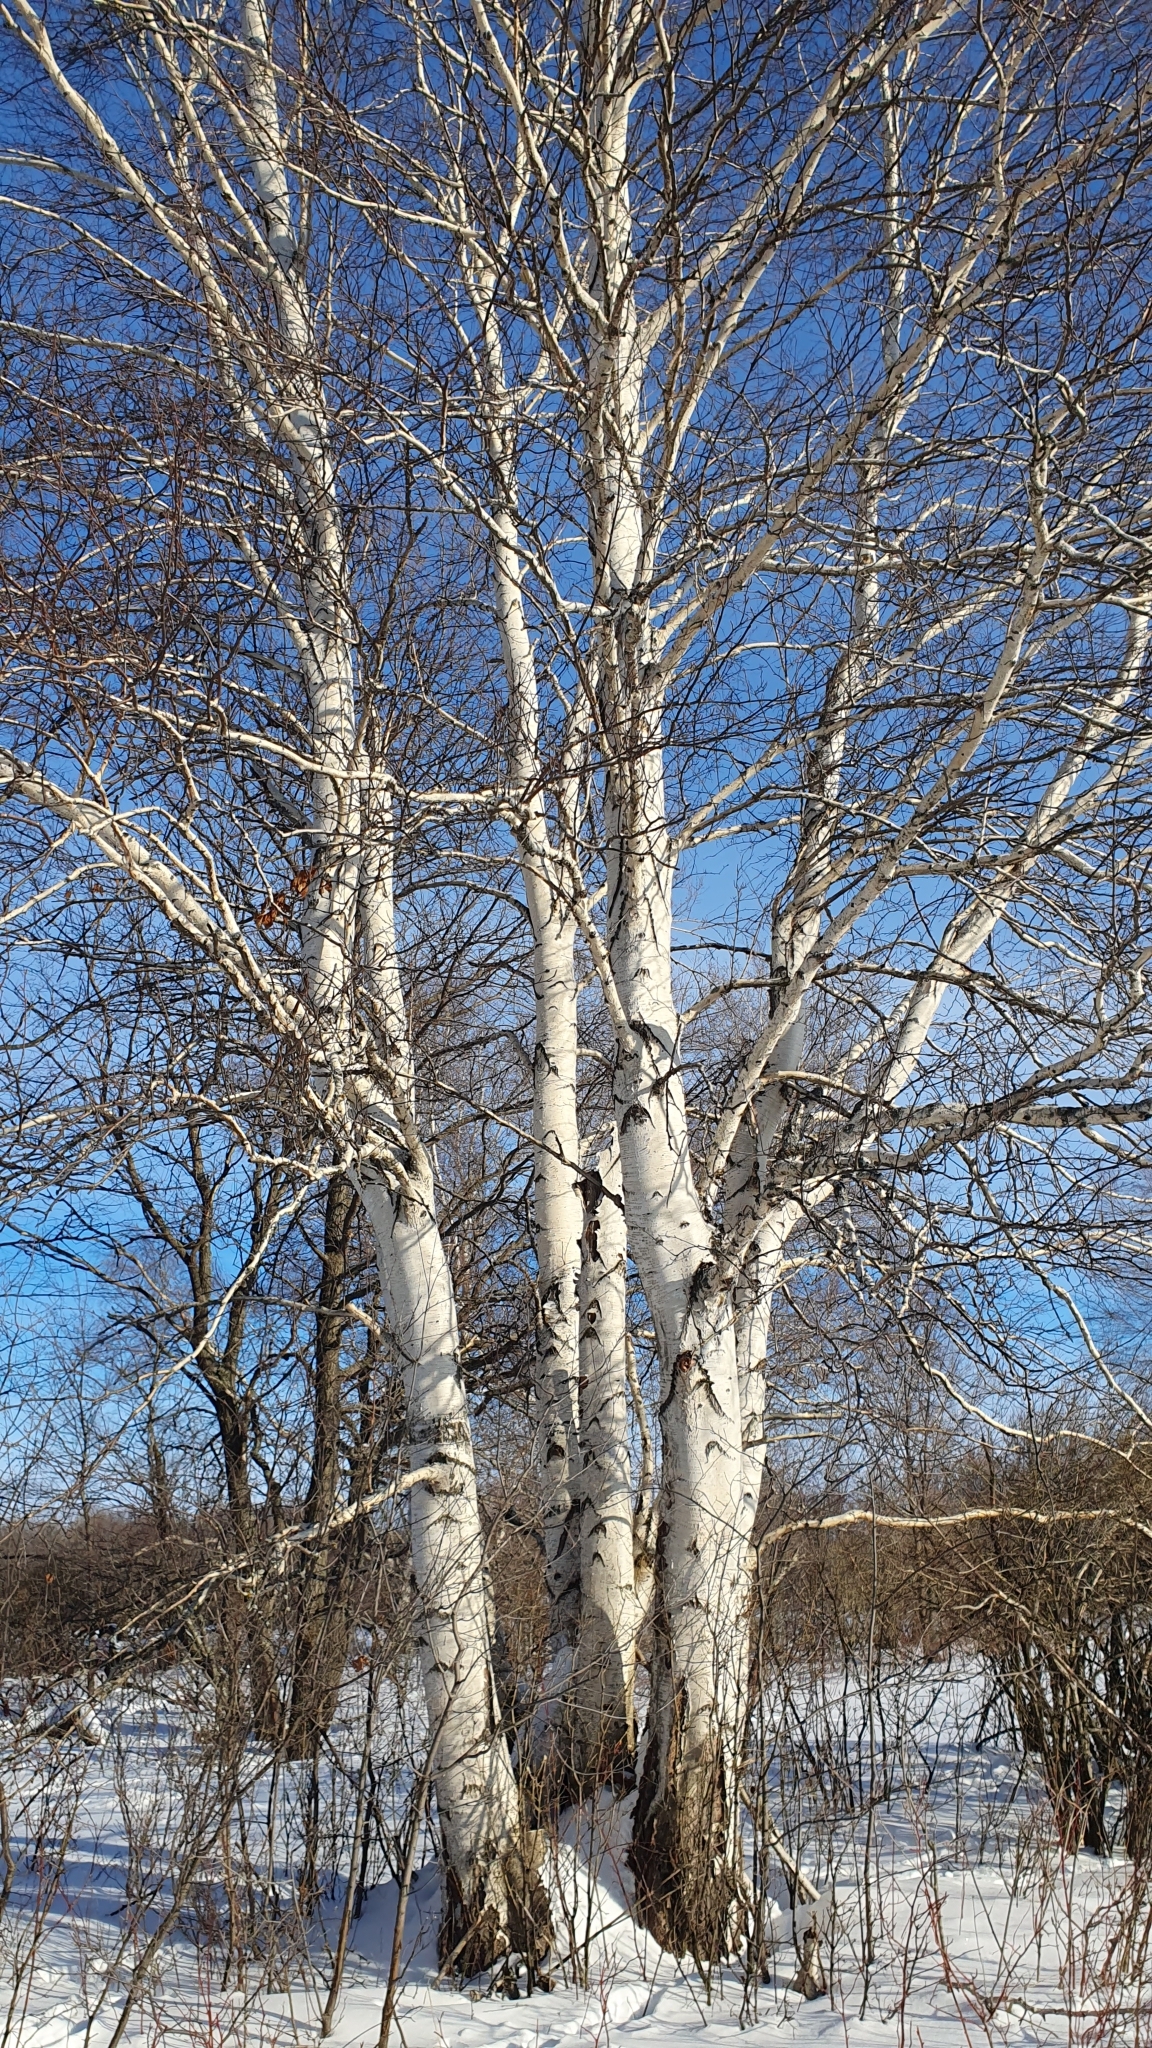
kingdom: Plantae
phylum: Tracheophyta
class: Magnoliopsida
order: Fagales
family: Betulaceae
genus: Betula
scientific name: Betula pendula
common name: Silver birch
